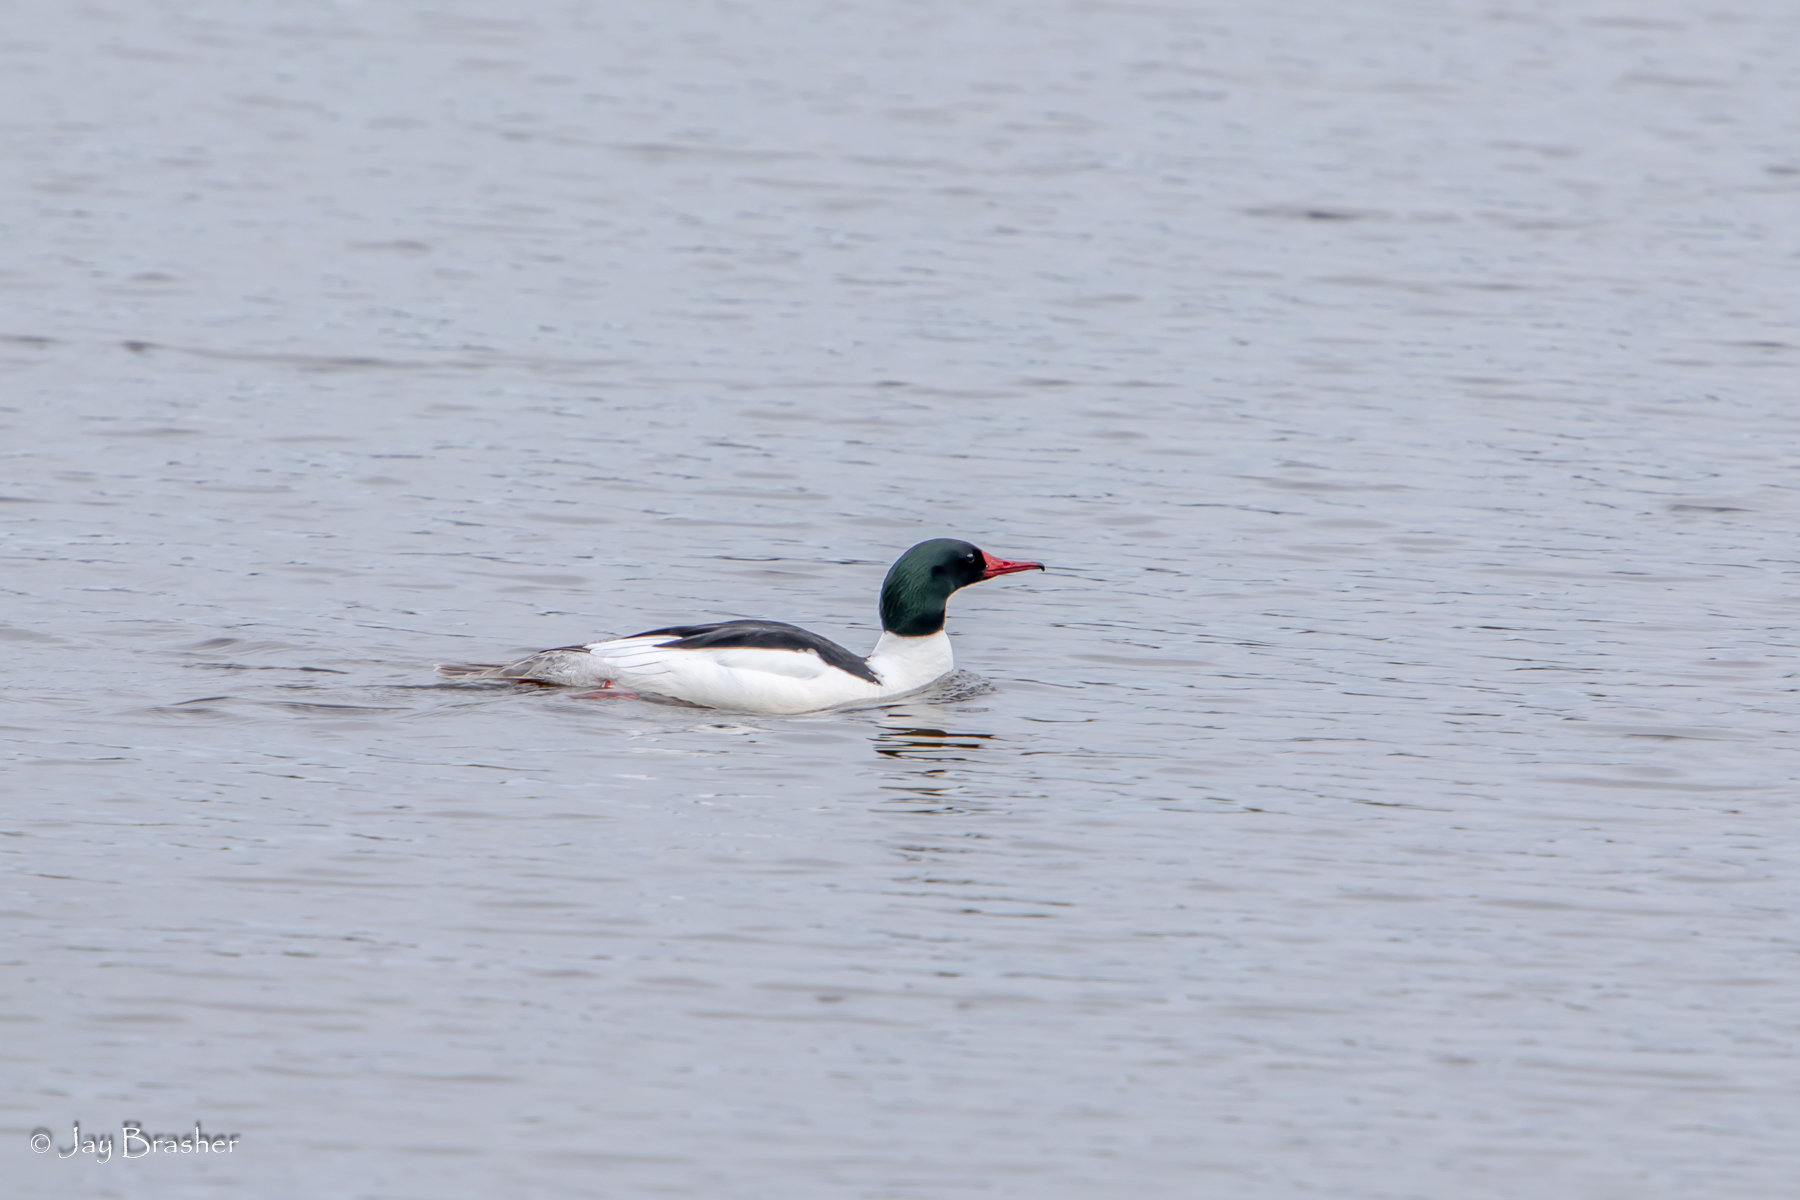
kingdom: Animalia
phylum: Chordata
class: Aves
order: Anseriformes
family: Anatidae
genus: Mergus
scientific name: Mergus merganser
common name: Common merganser
